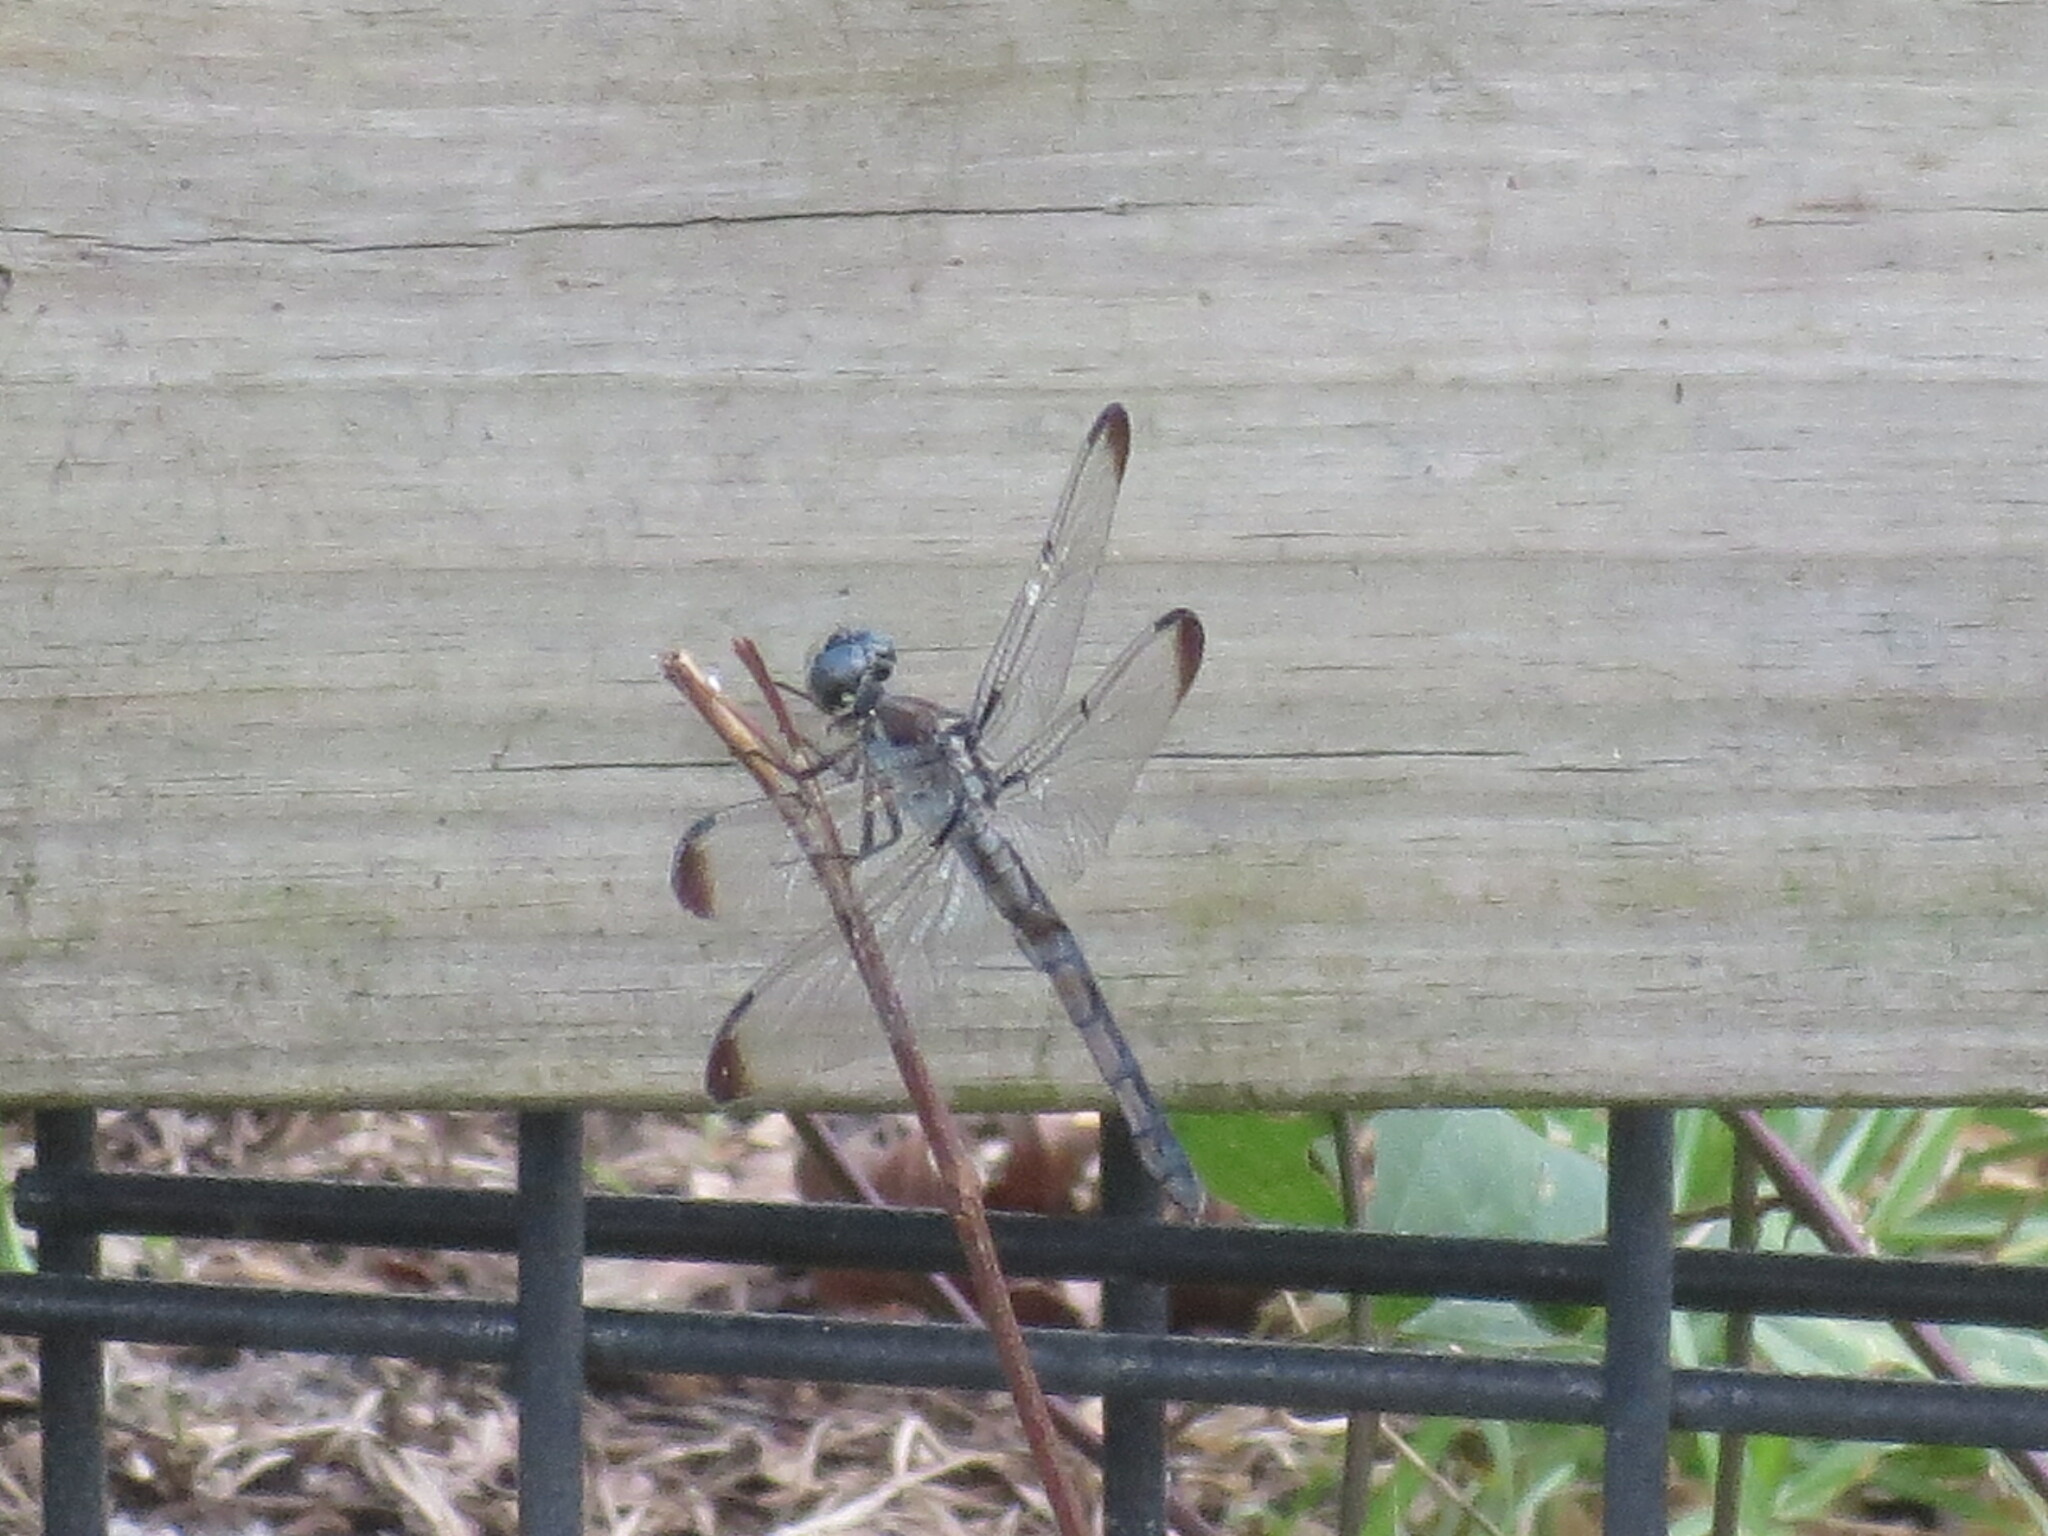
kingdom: Animalia
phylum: Arthropoda
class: Insecta
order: Odonata
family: Libellulidae
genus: Libellula
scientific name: Libellula vibrans
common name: Great blue skimmer
